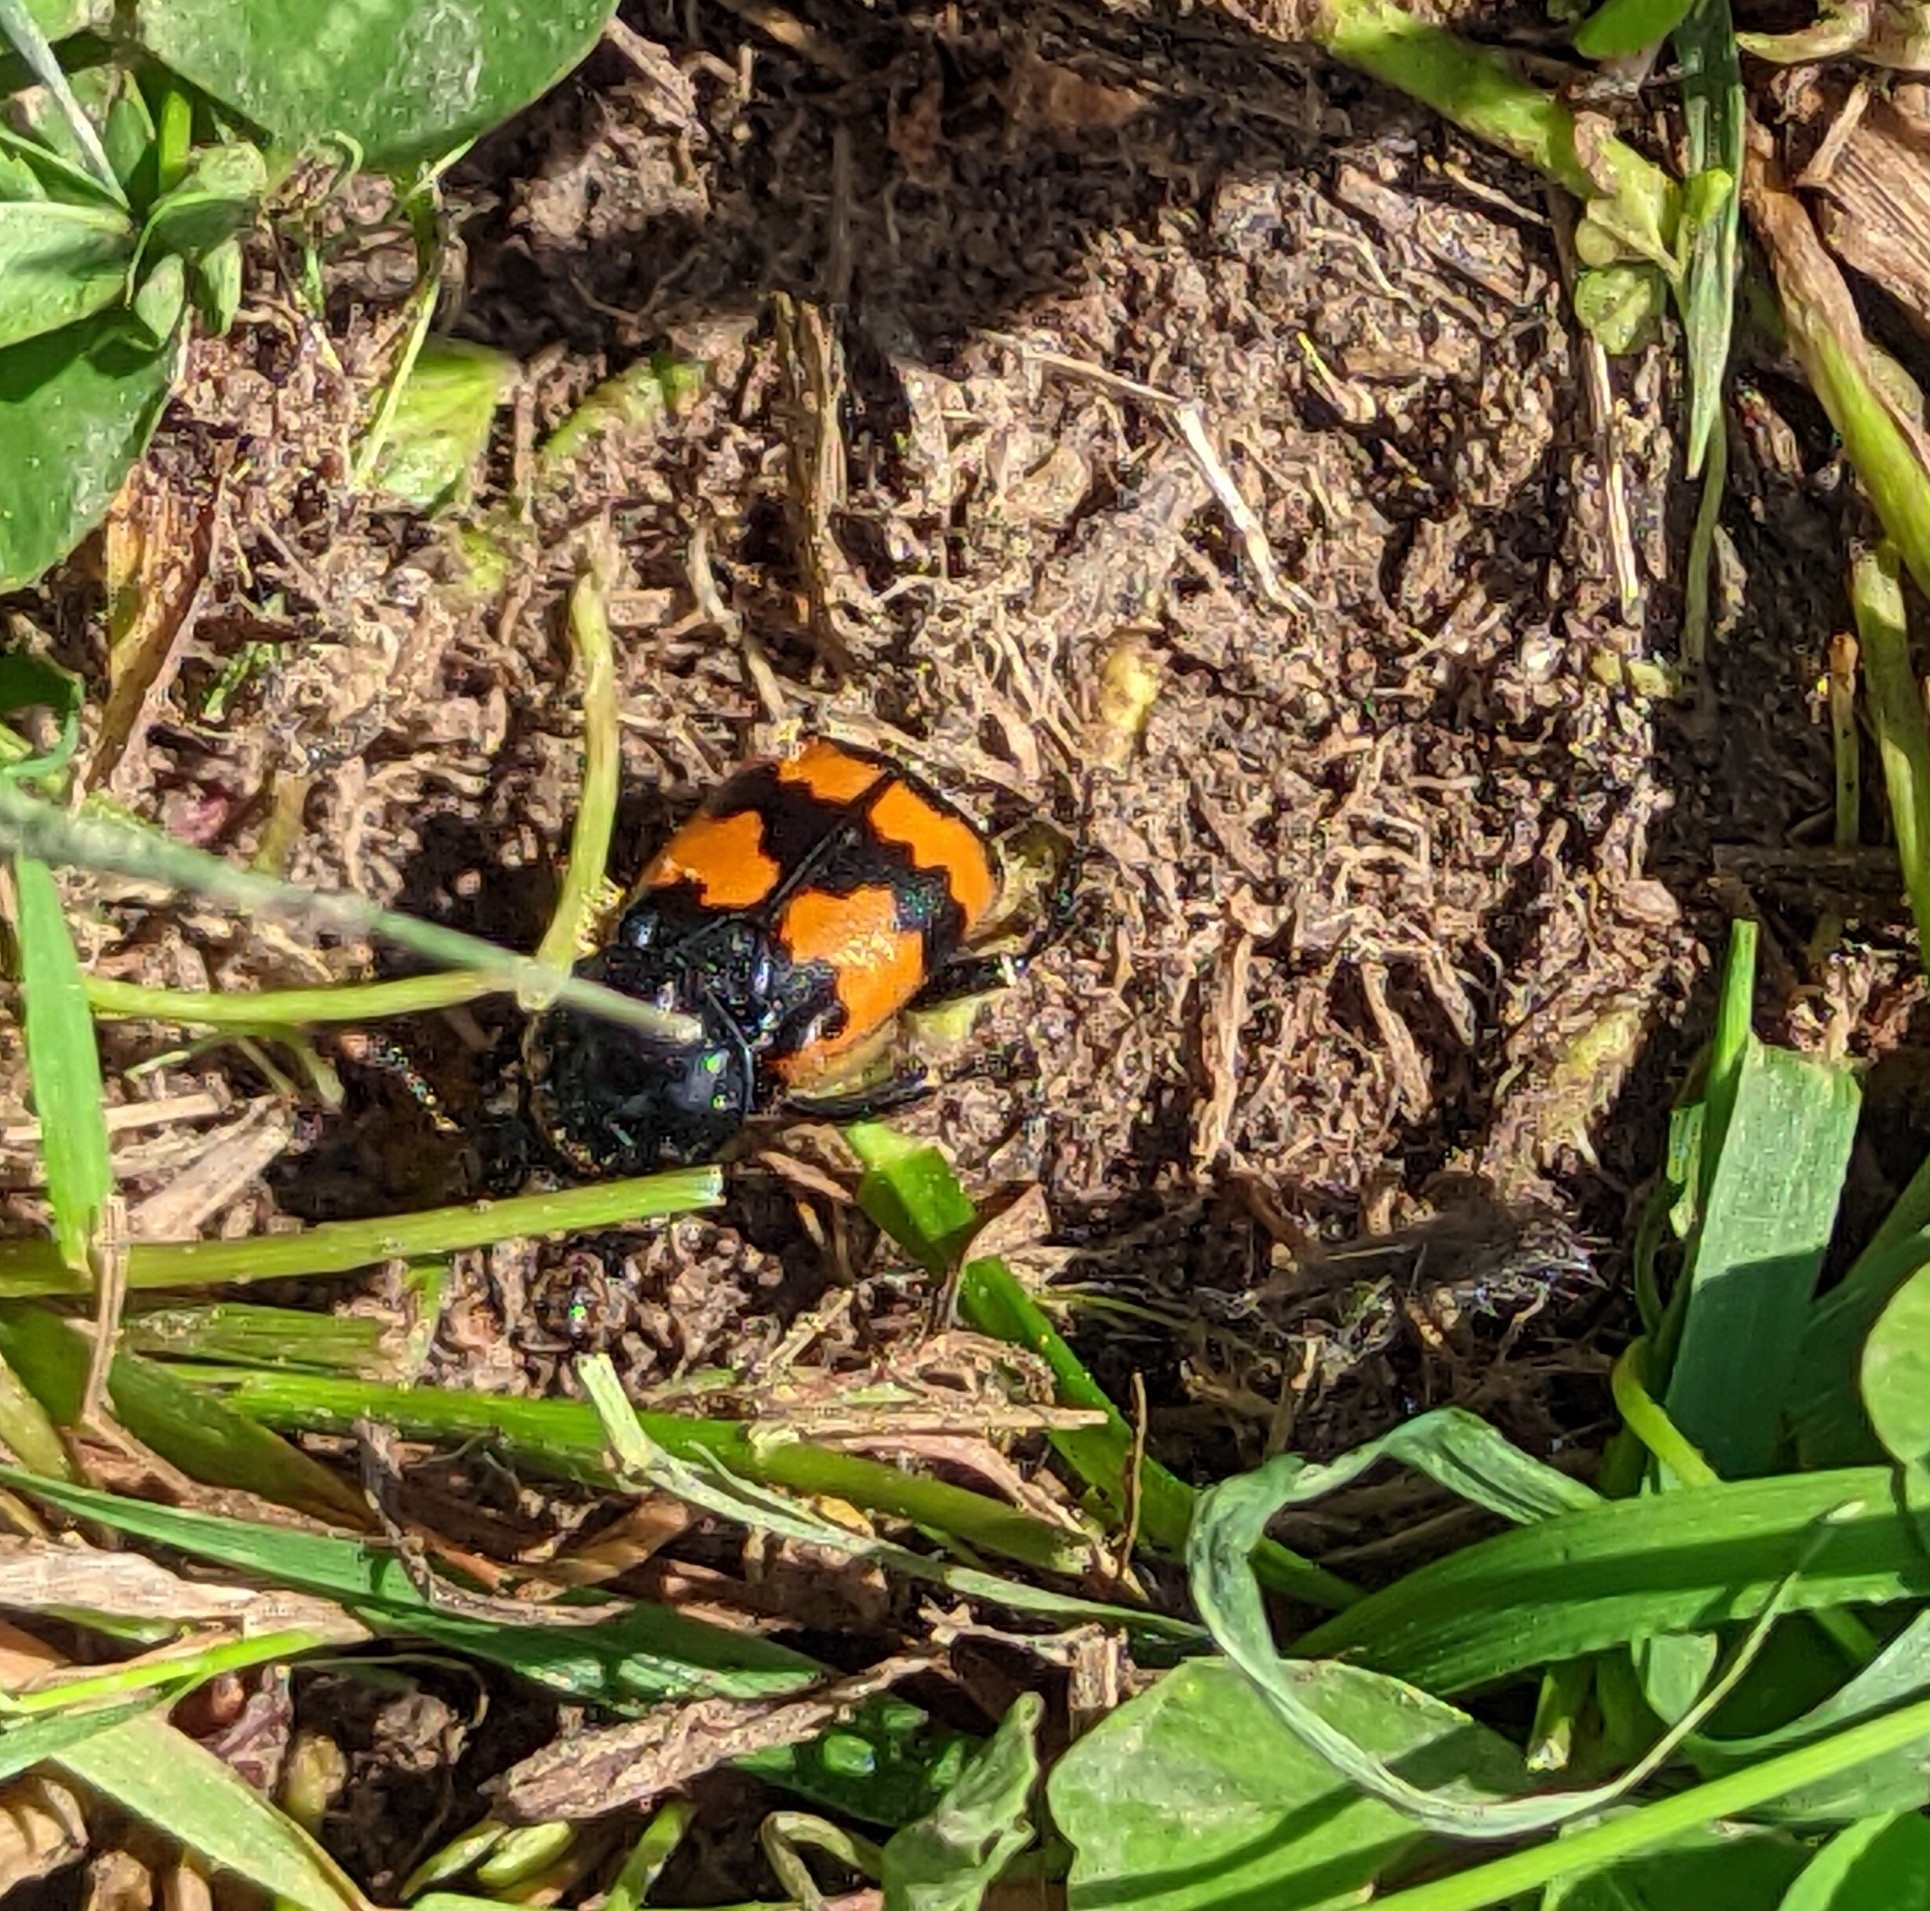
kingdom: Animalia
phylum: Arthropoda
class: Insecta
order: Coleoptera
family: Staphylinidae
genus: Nicrophorus
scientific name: Nicrophorus vespillo
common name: Common burying beetle
